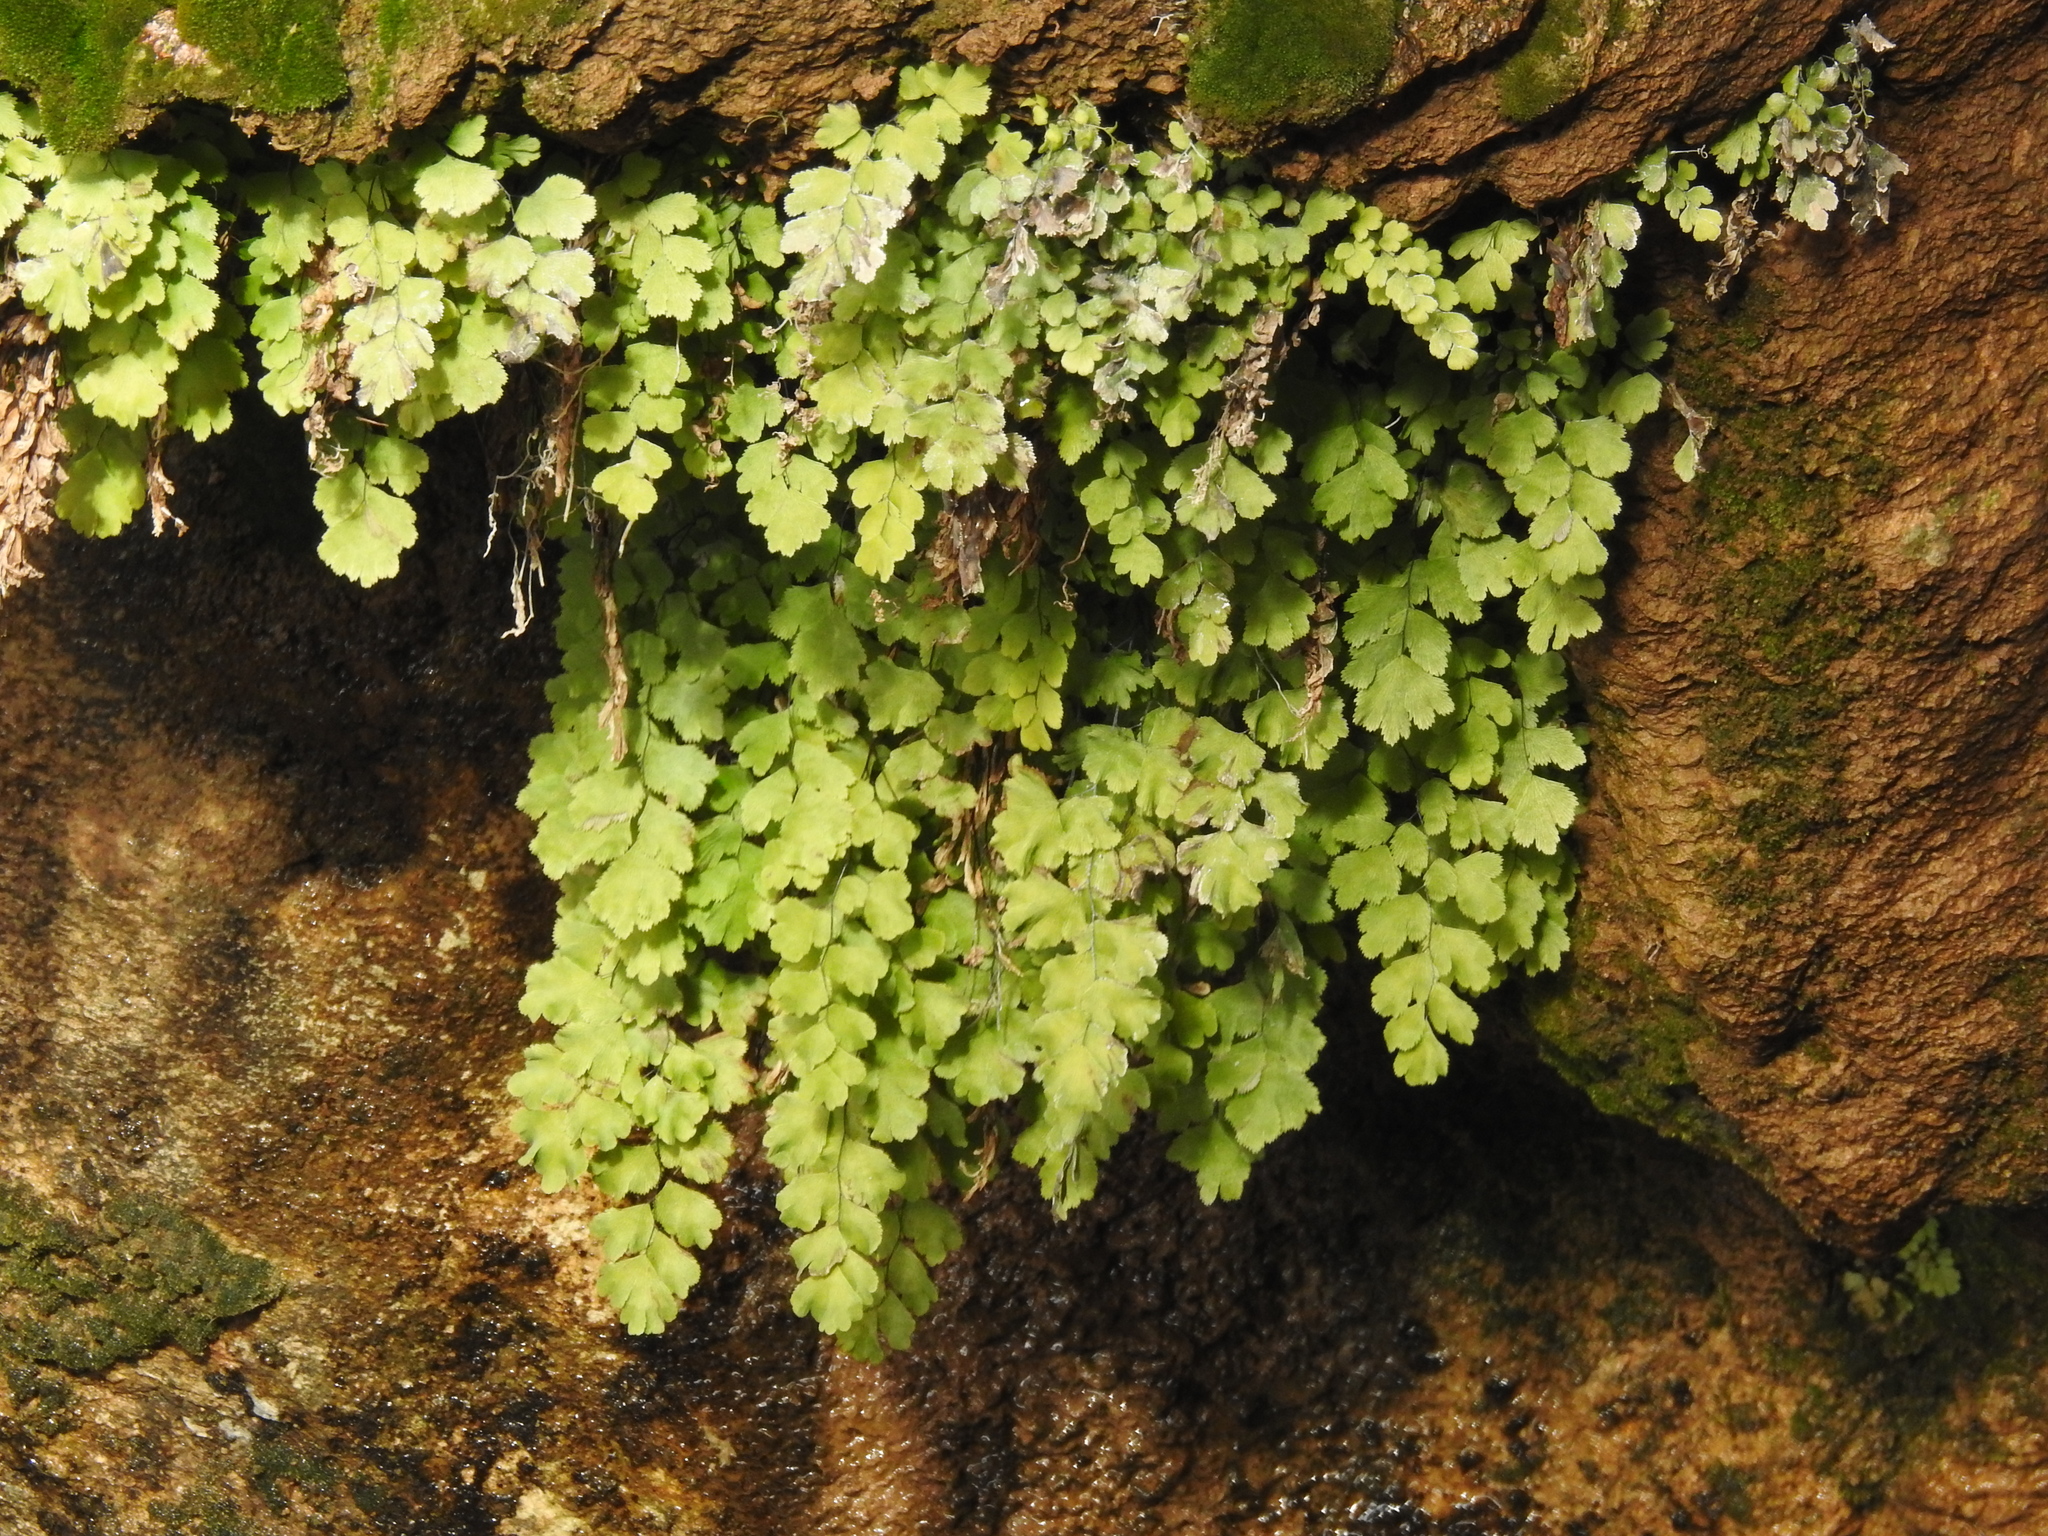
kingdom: Plantae
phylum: Tracheophyta
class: Polypodiopsida
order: Polypodiales
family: Pteridaceae
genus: Adiantum
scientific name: Adiantum capillus-veneris
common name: Maidenhair fern
